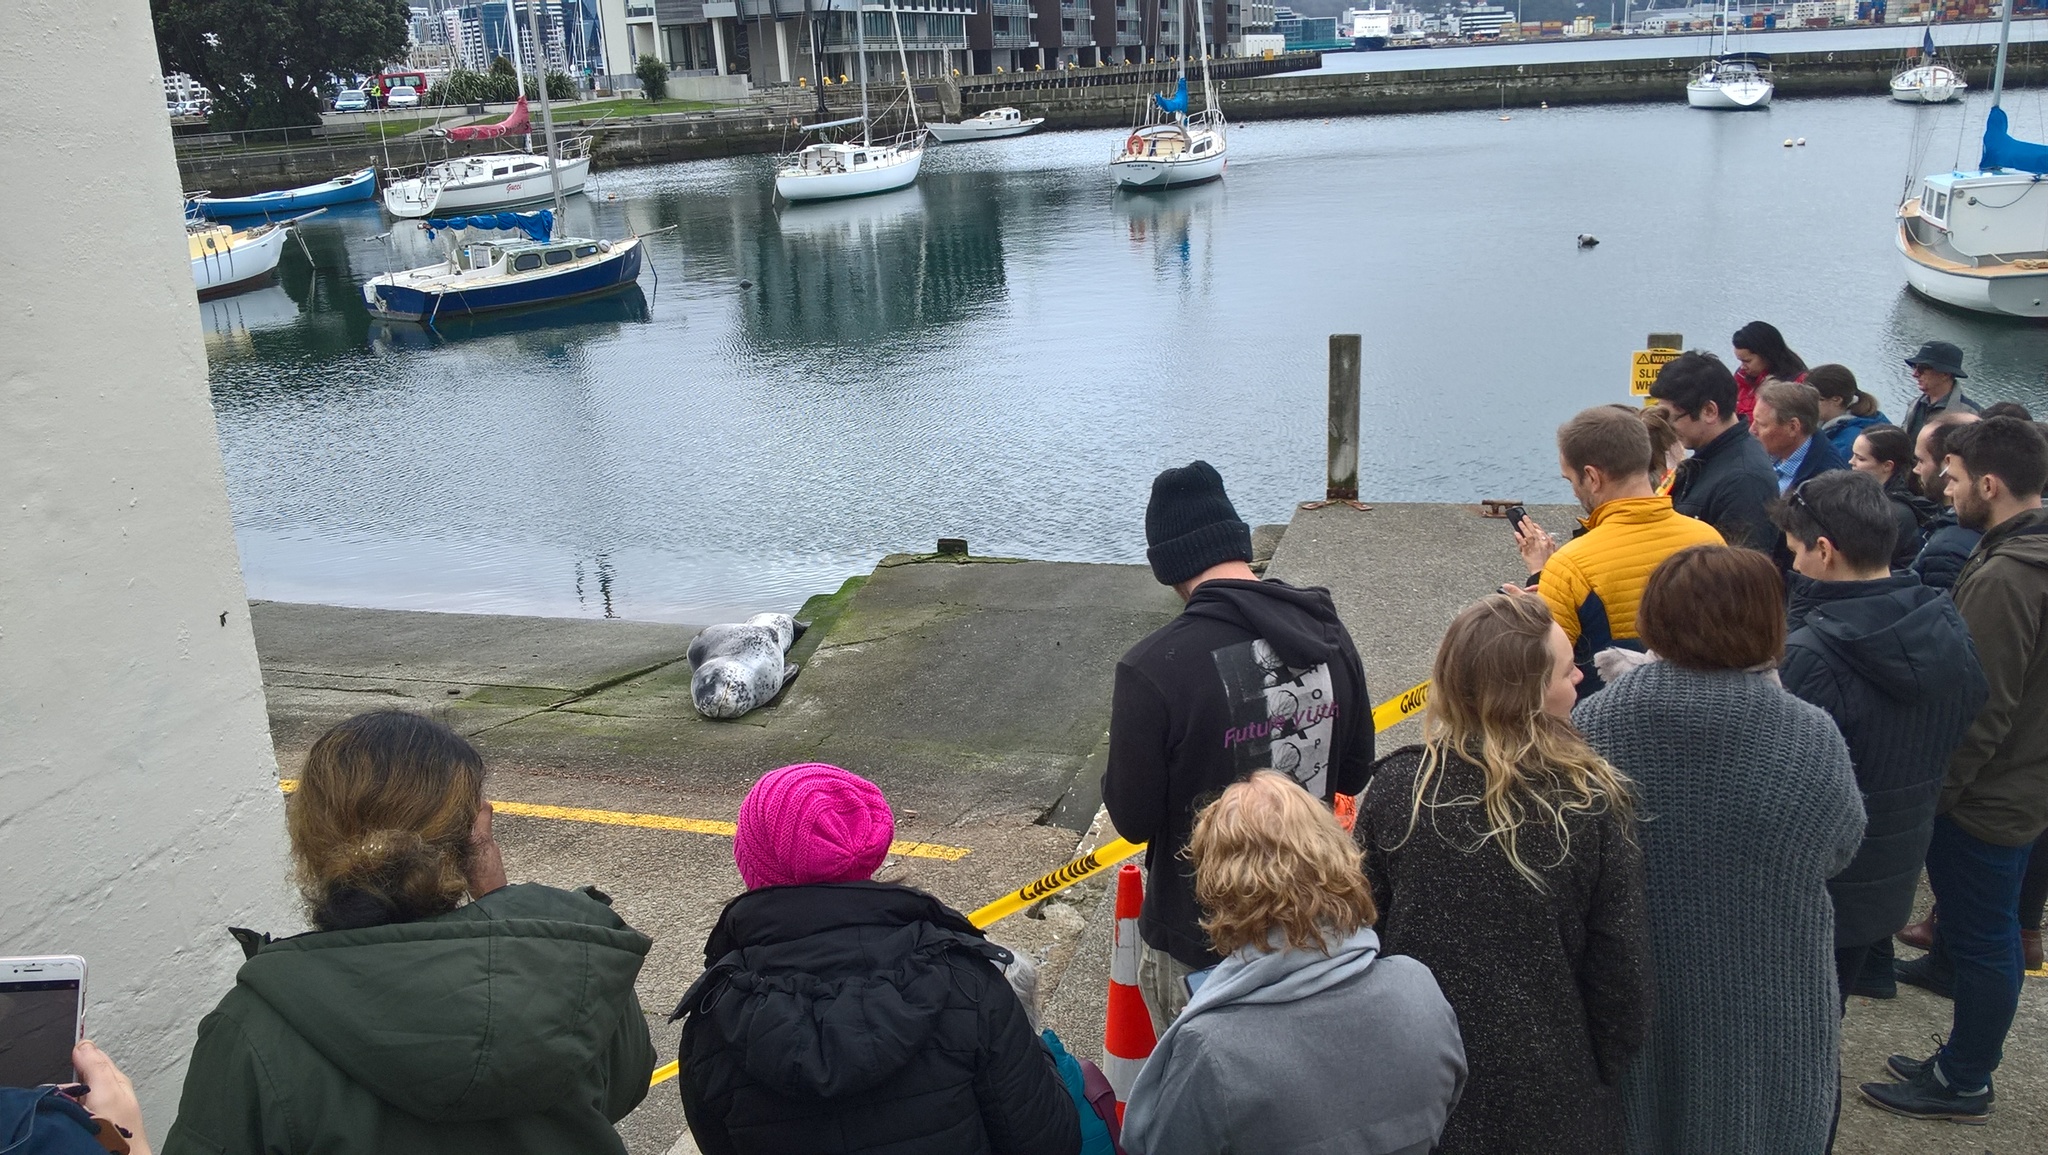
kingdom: Animalia
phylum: Chordata
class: Mammalia
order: Carnivora
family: Phocidae
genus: Hydrurga
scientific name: Hydrurga leptonyx
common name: Leopard seal
